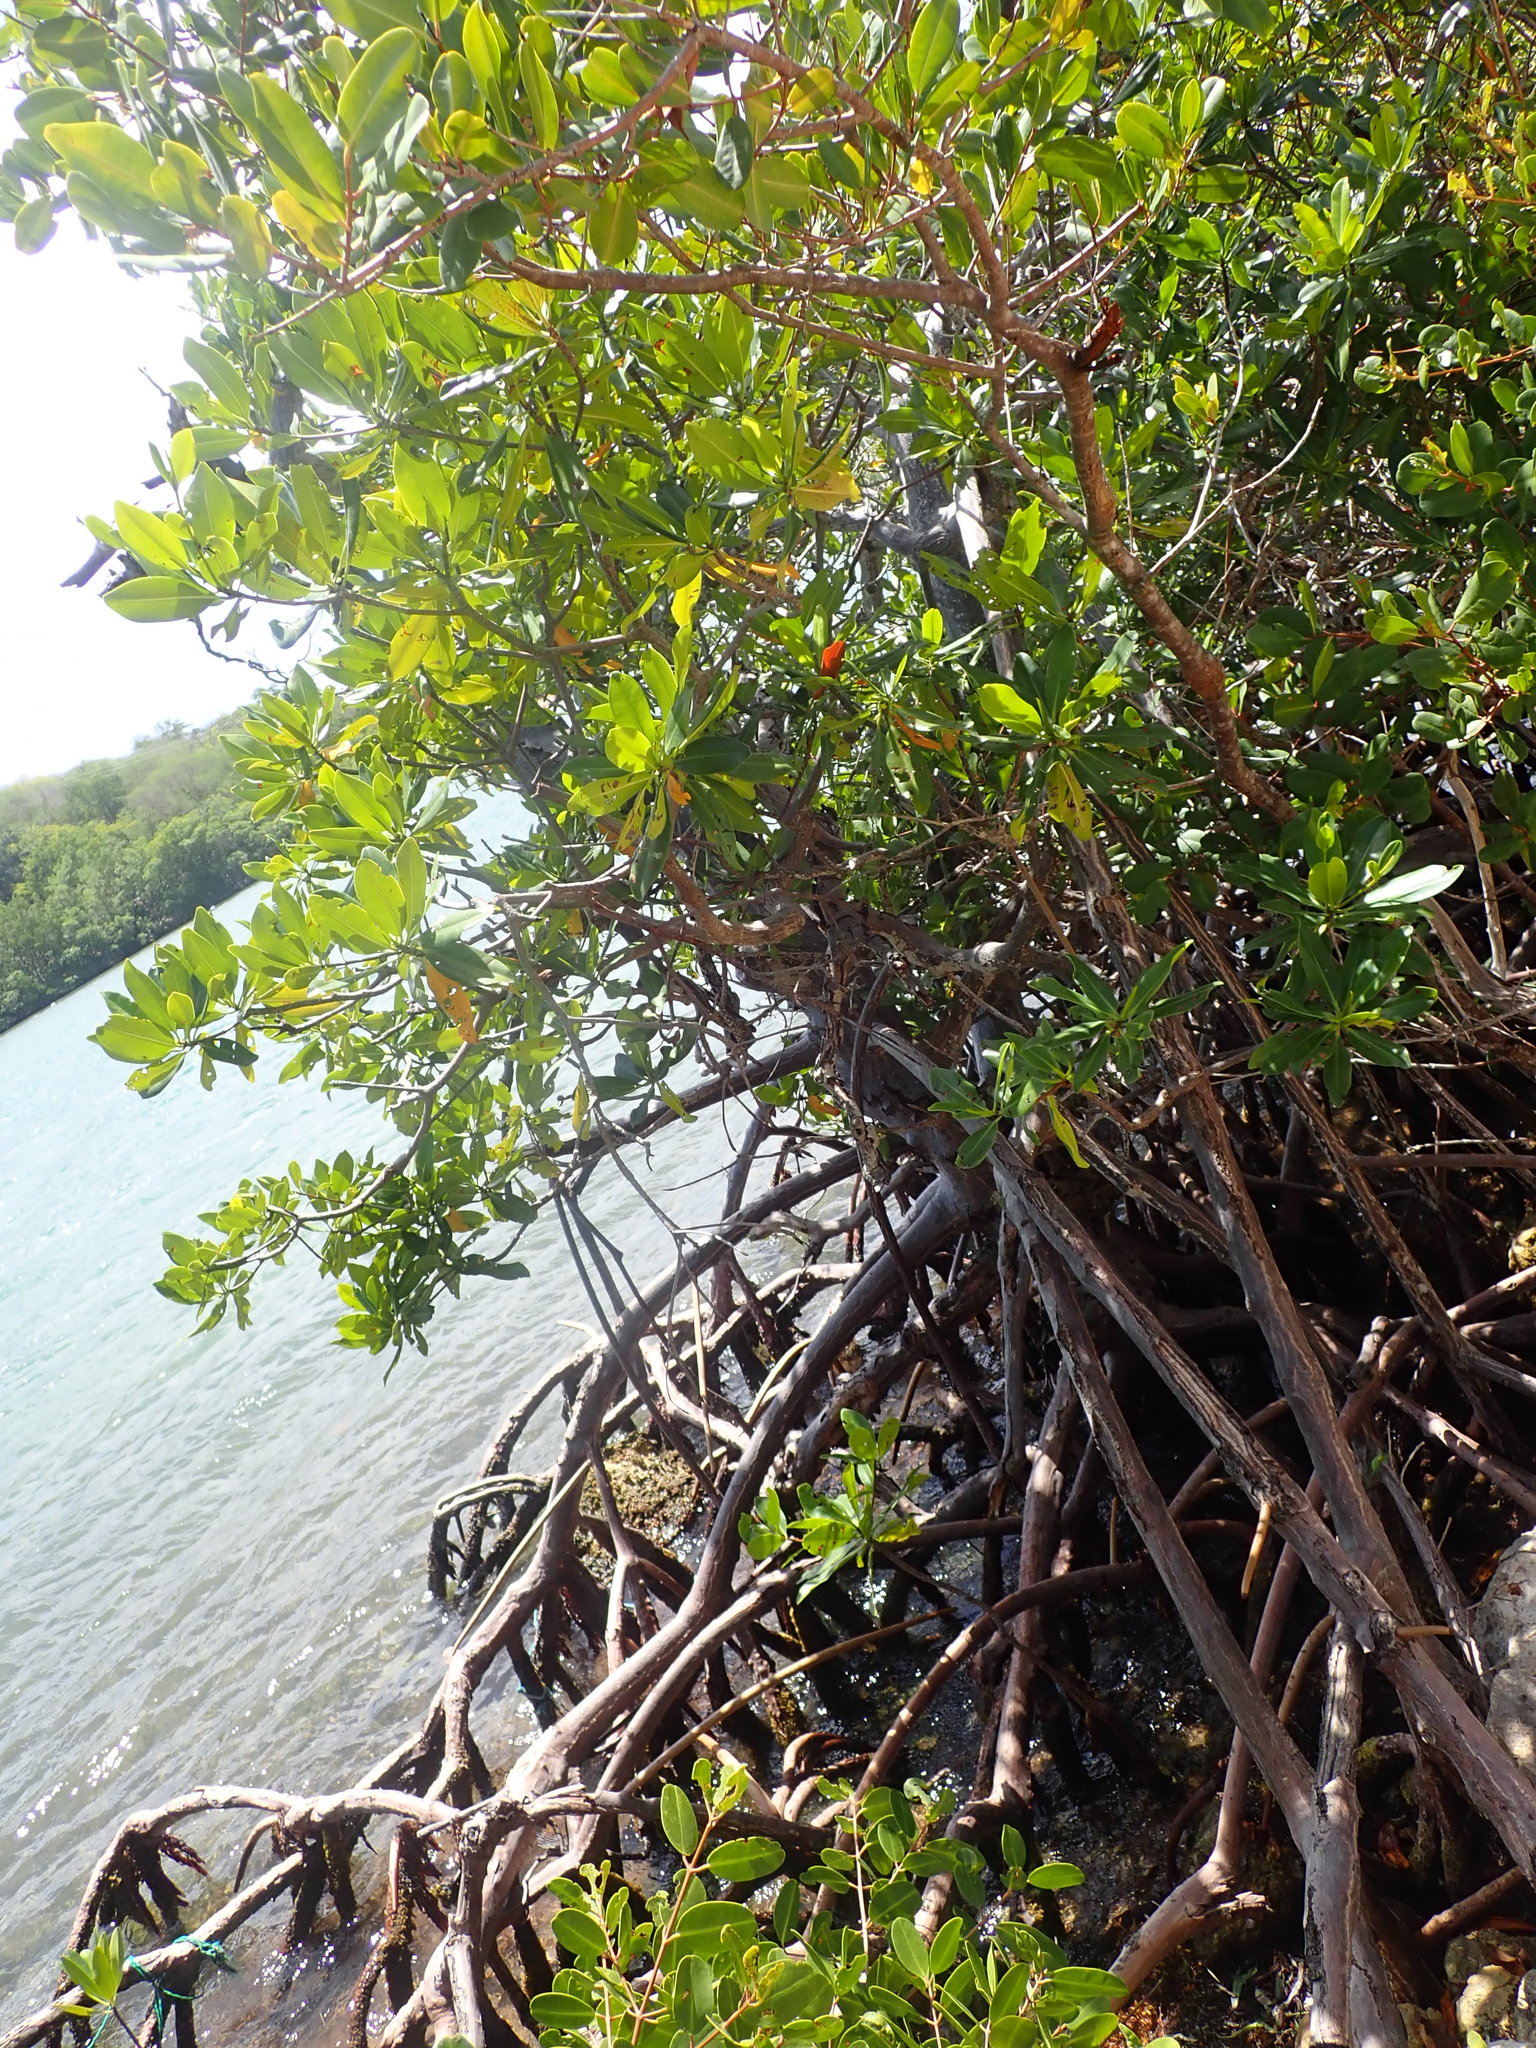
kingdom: Plantae
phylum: Tracheophyta
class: Magnoliopsida
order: Malpighiales
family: Rhizophoraceae
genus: Rhizophora
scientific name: Rhizophora mangle
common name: Red mangrove
